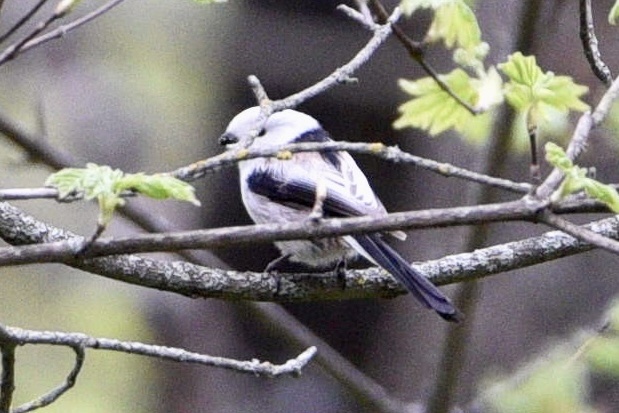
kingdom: Animalia
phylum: Chordata
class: Aves
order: Passeriformes
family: Aegithalidae
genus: Aegithalos
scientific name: Aegithalos caudatus
